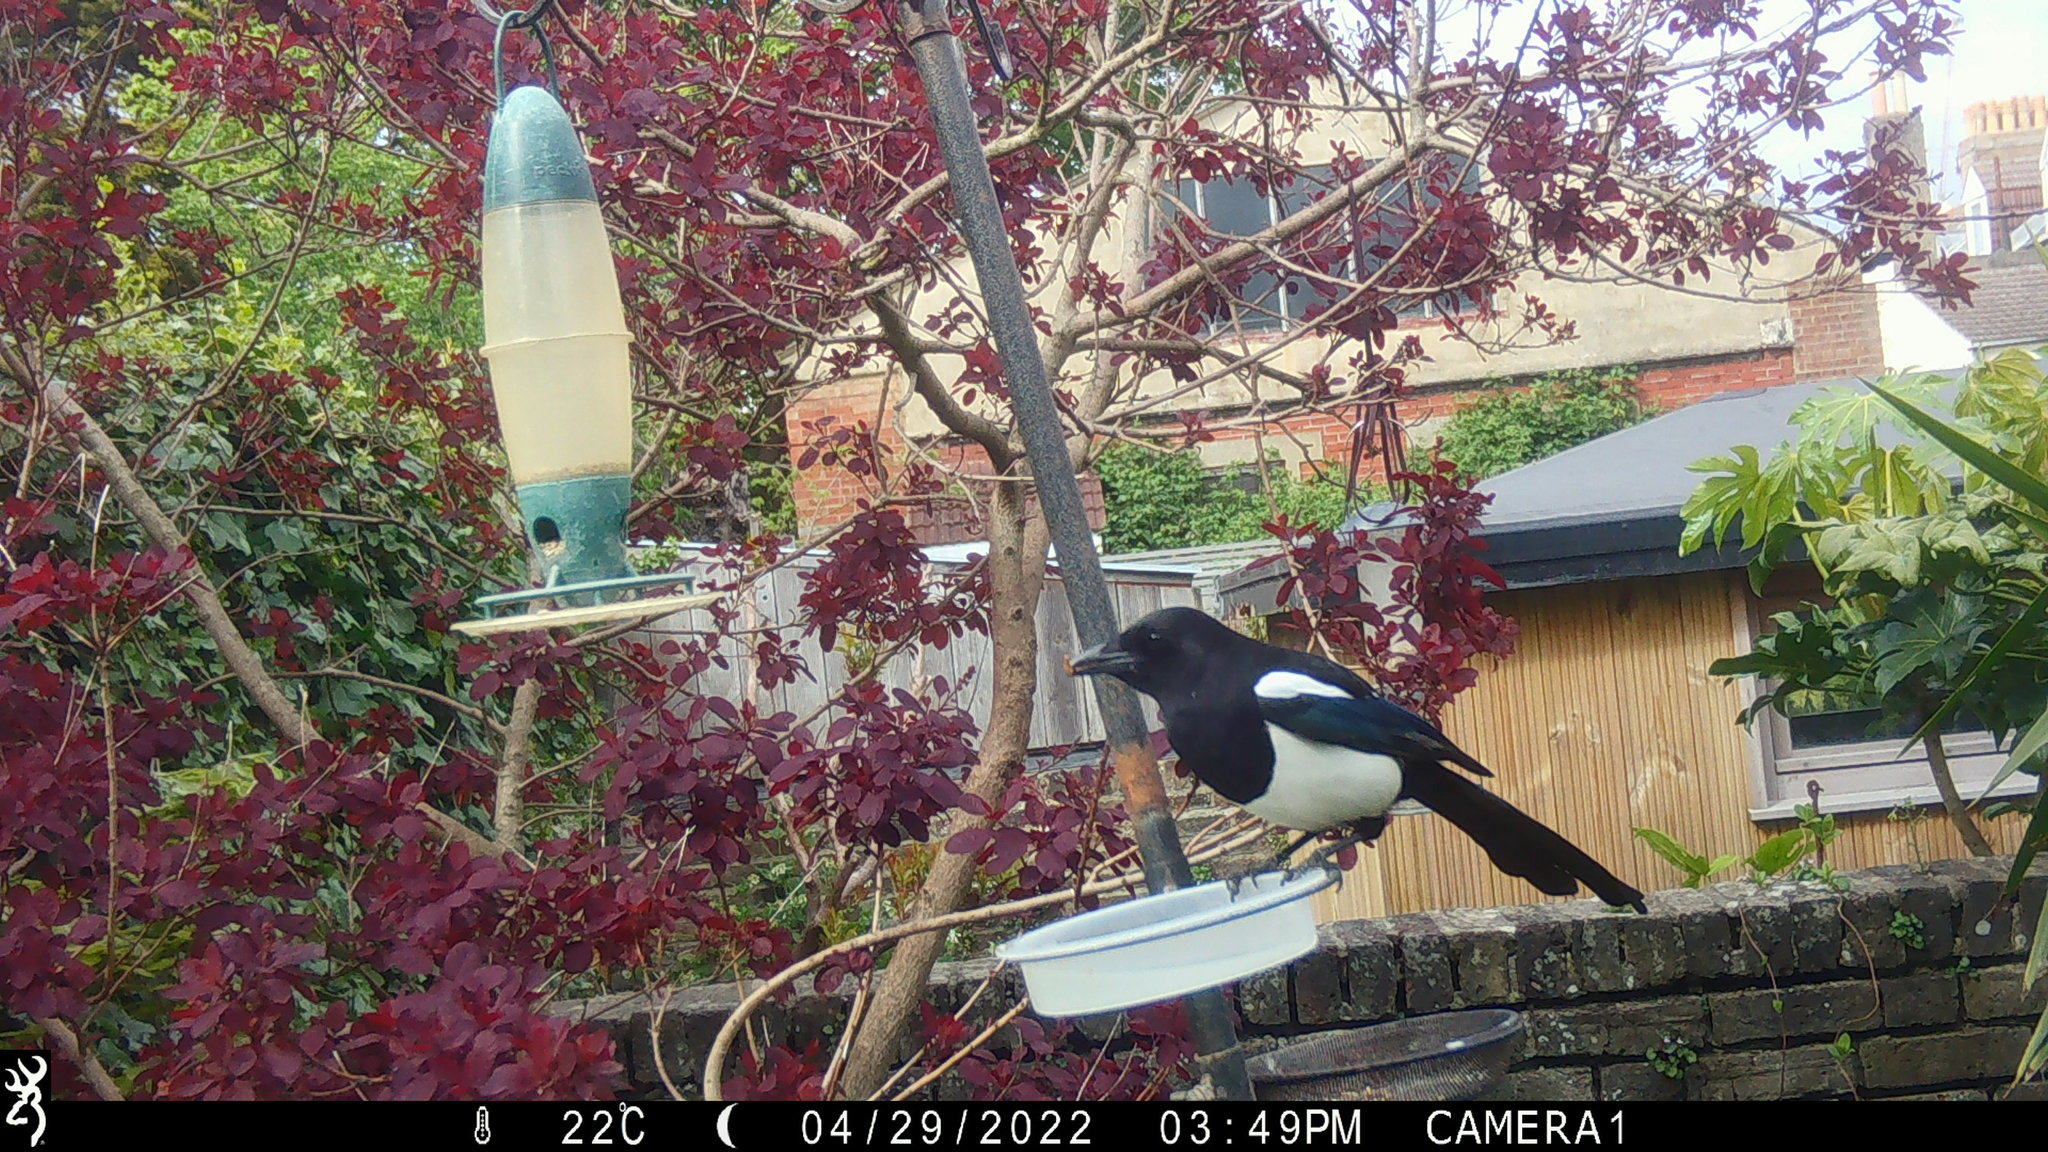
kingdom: Animalia
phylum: Chordata
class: Aves
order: Passeriformes
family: Corvidae
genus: Pica
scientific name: Pica pica
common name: Eurasian magpie
